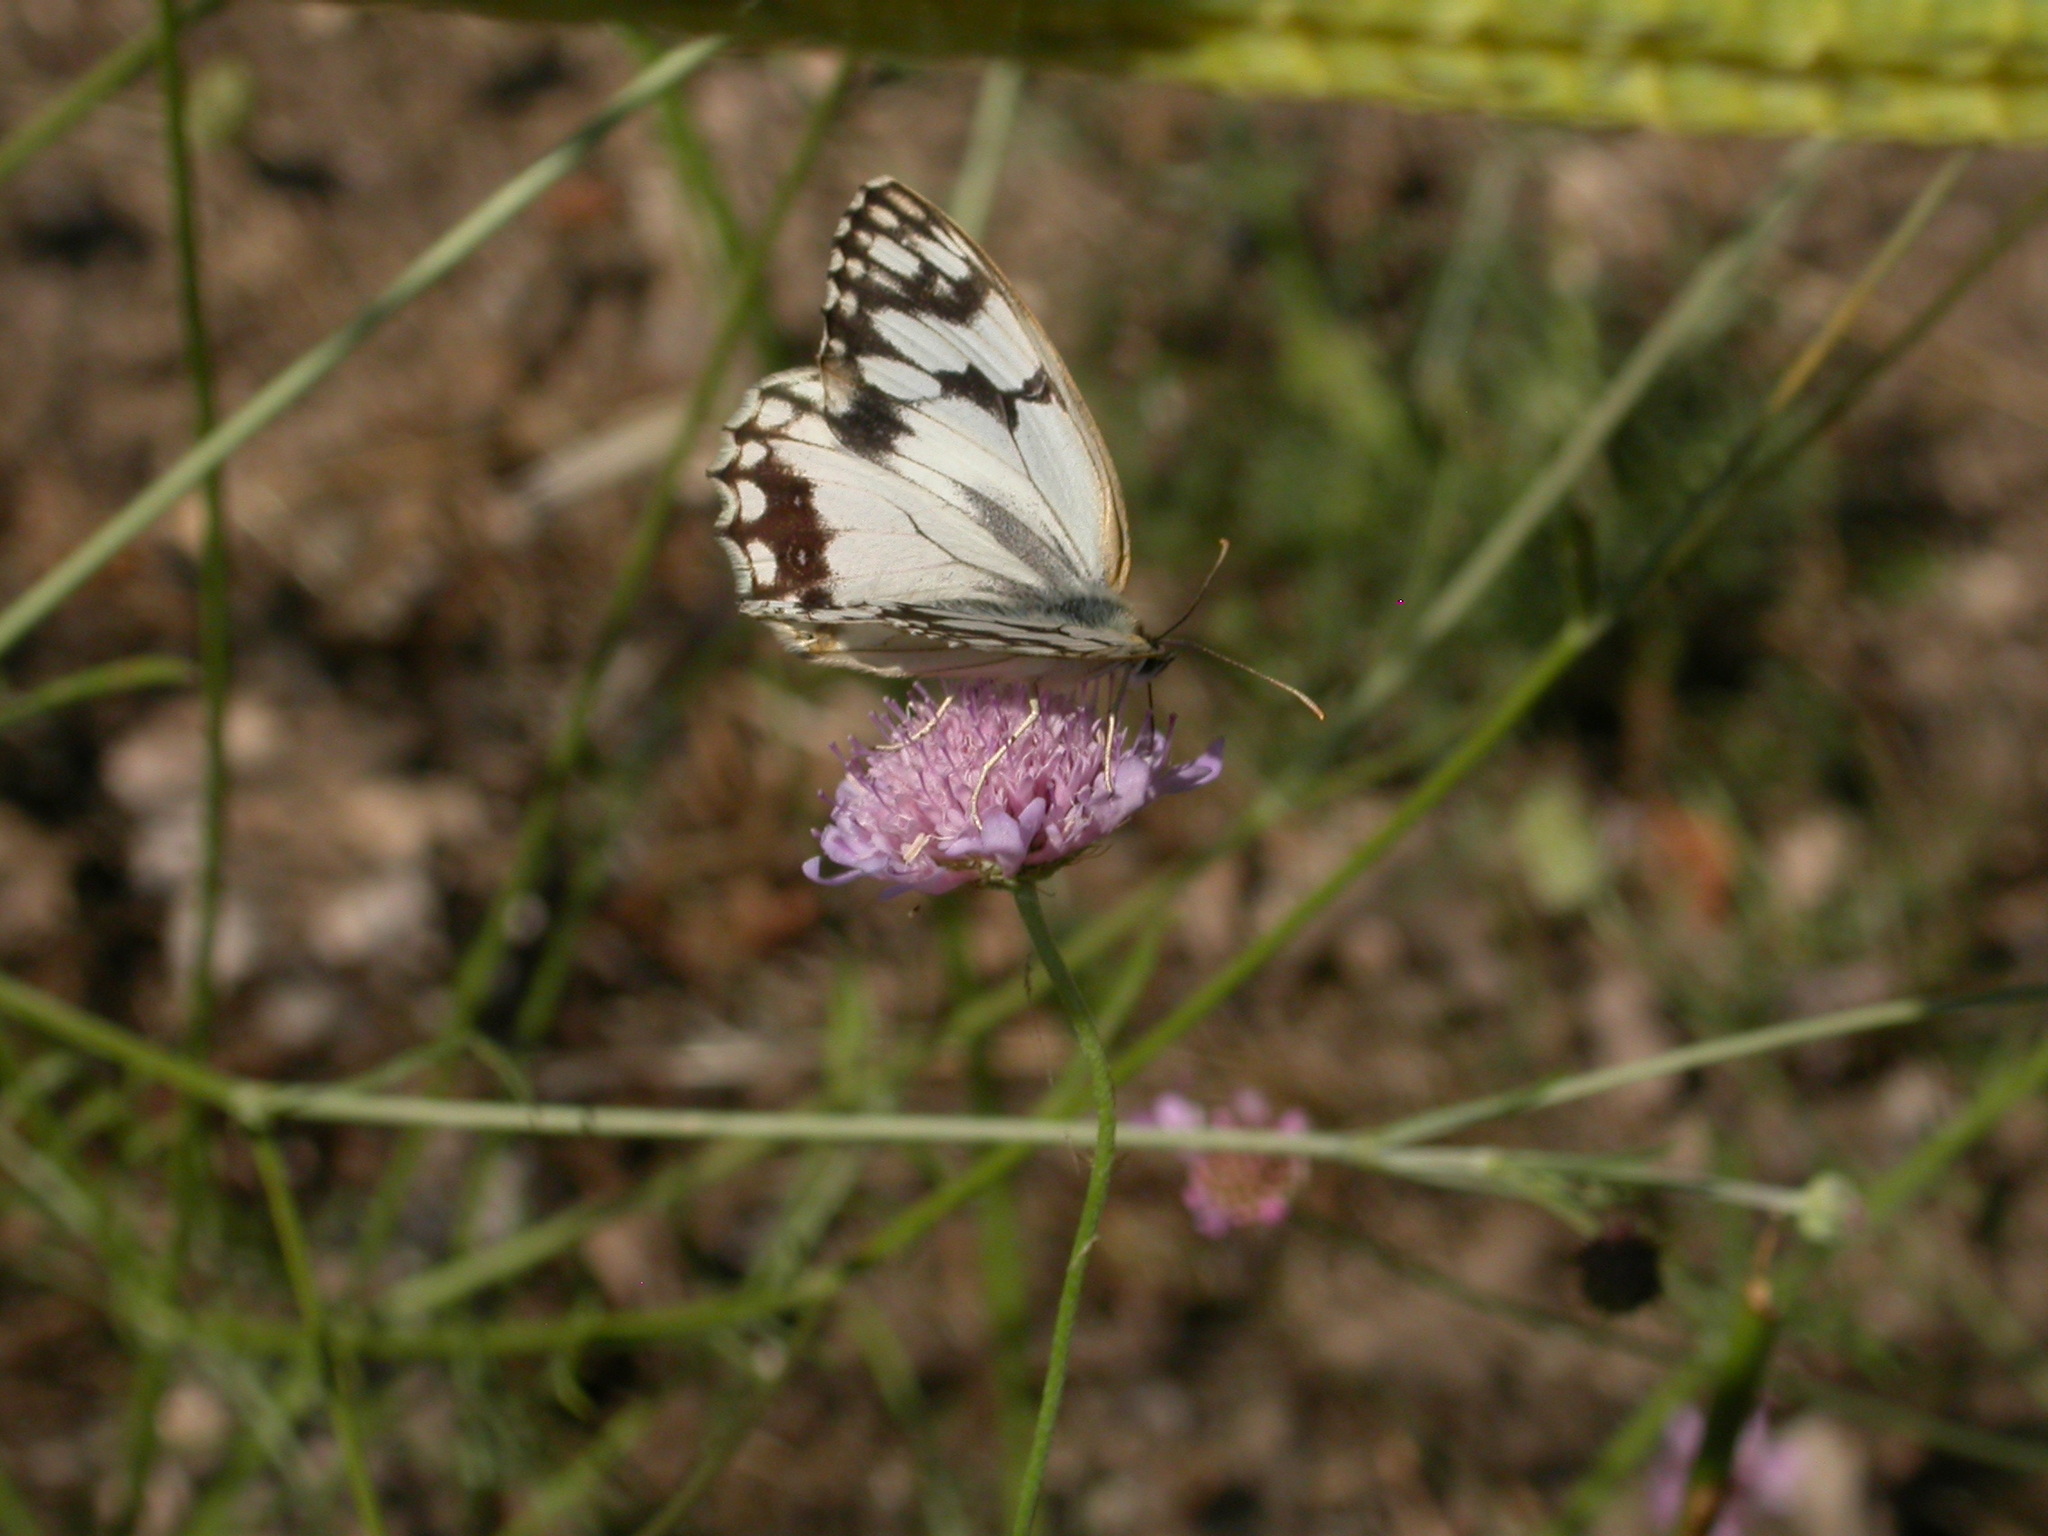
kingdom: Animalia
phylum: Arthropoda
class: Insecta
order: Lepidoptera
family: Nymphalidae
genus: Melanargia
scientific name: Melanargia lachesis
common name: Iberian marbled white
